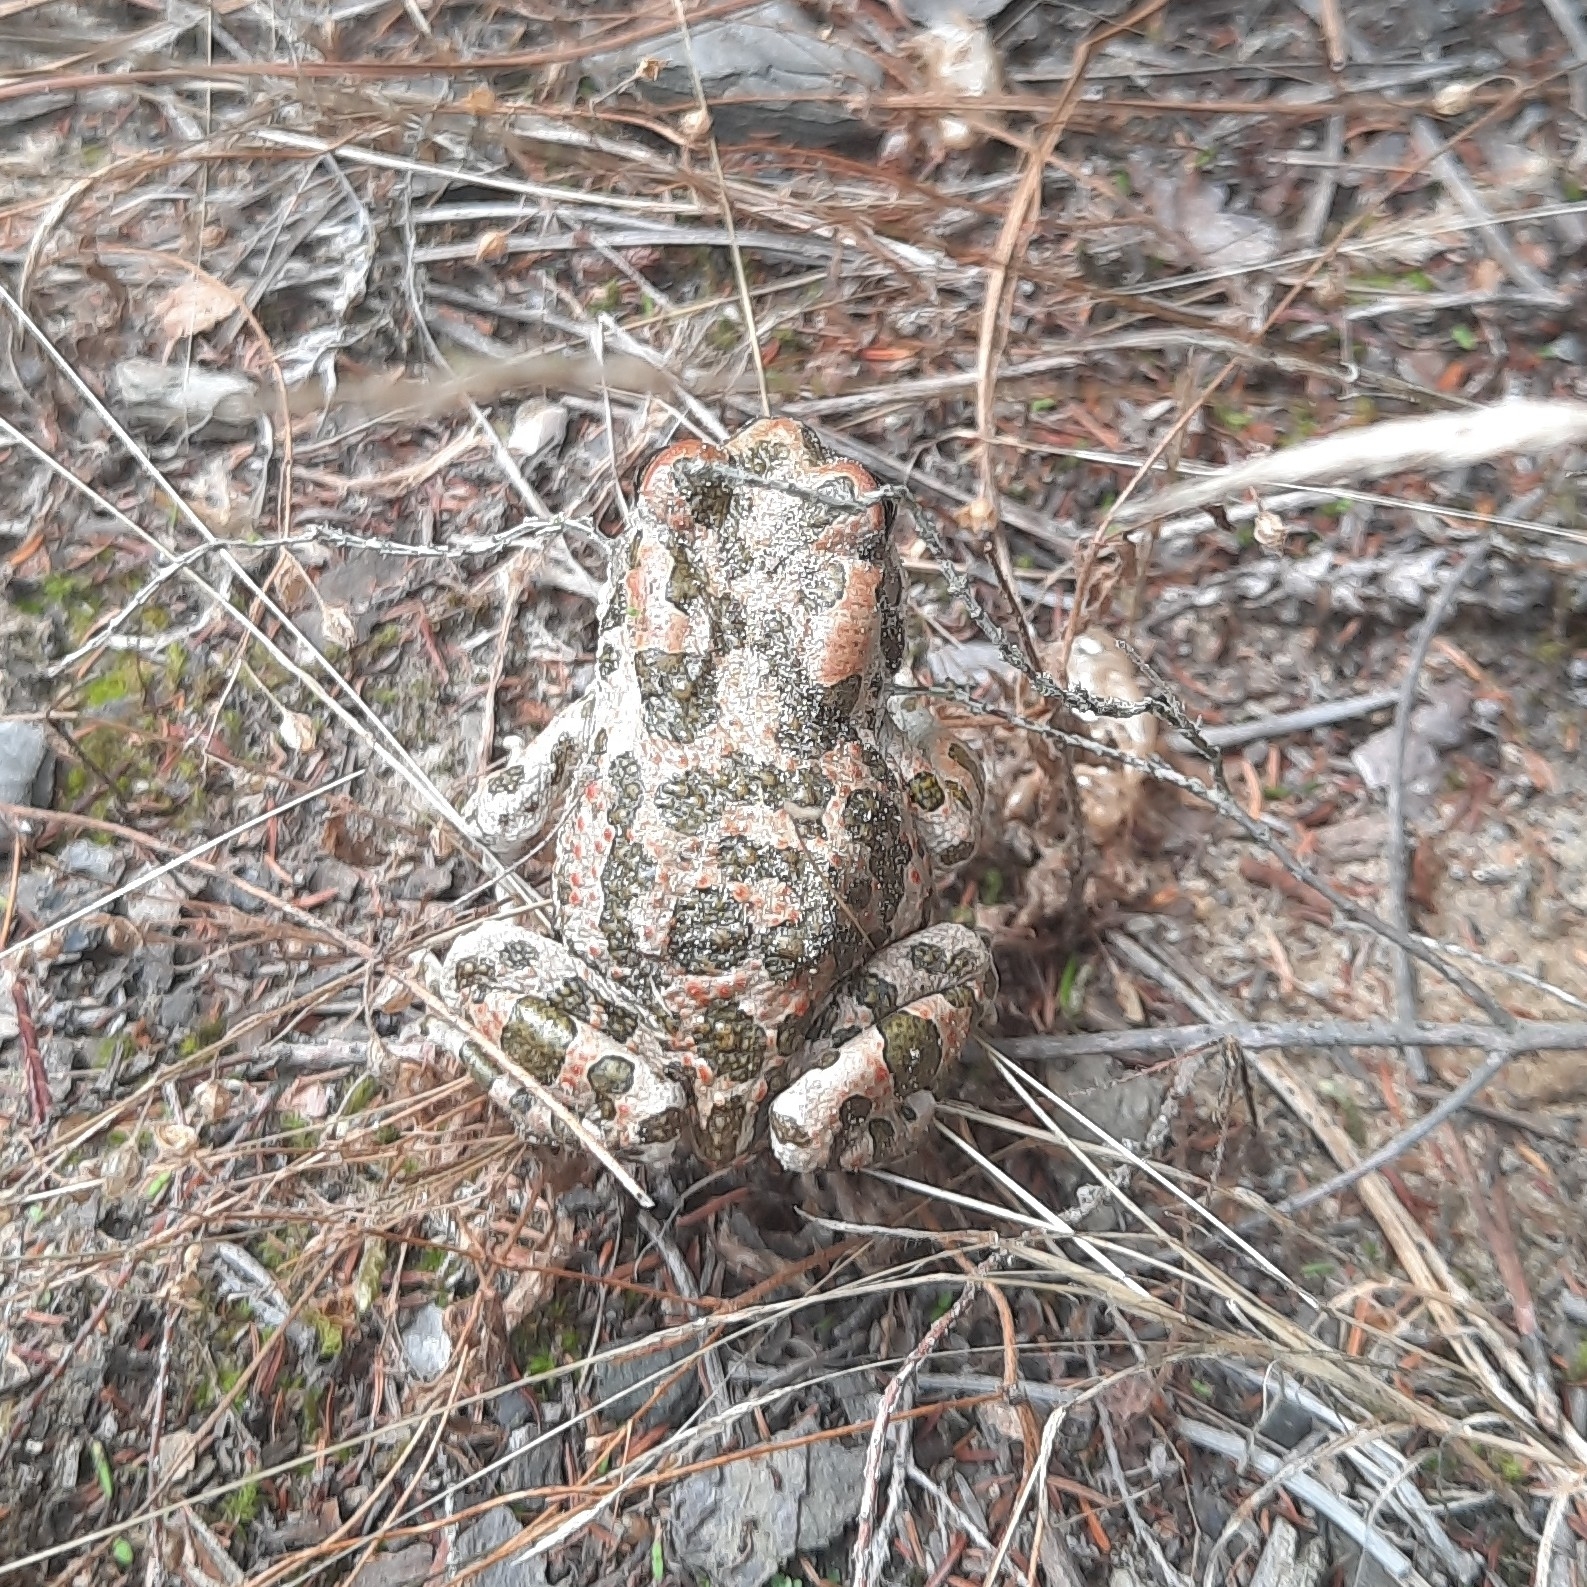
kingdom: Animalia
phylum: Chordata
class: Amphibia
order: Anura
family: Bufonidae
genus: Bufotes
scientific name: Bufotes viridis
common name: European green toad
